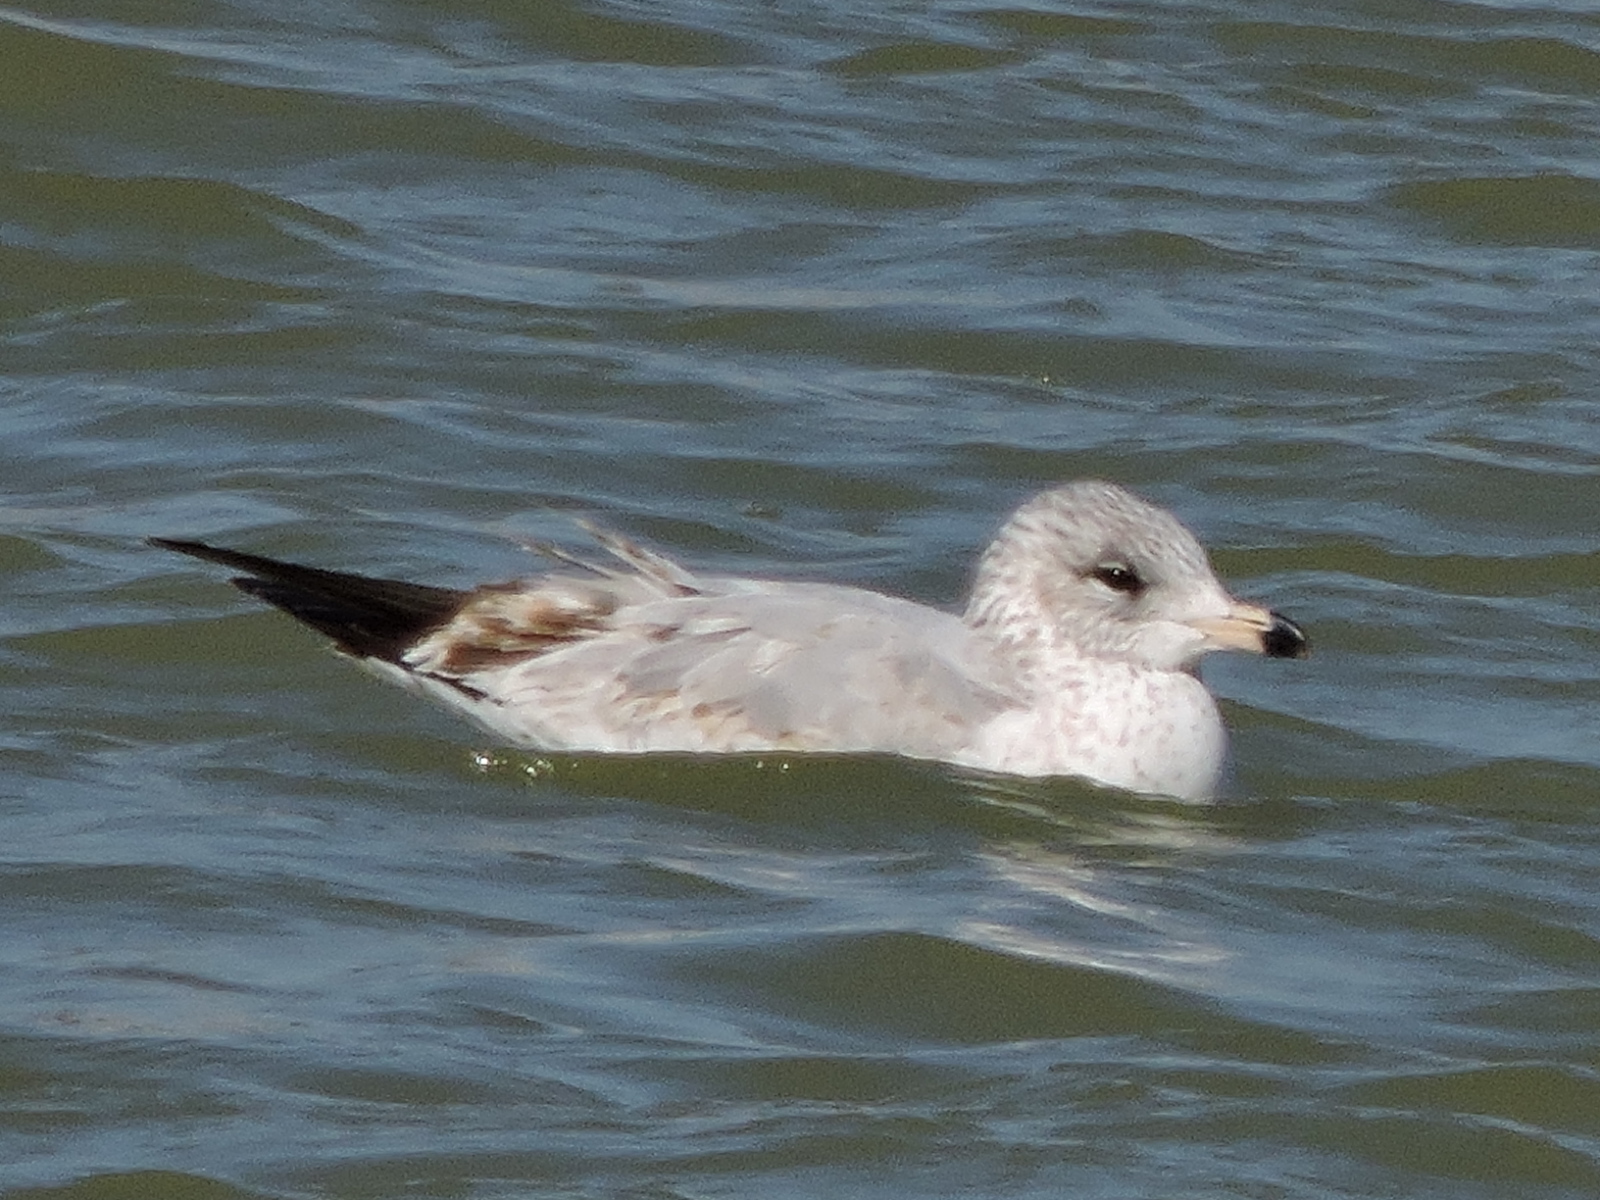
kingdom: Animalia
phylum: Chordata
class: Aves
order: Charadriiformes
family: Laridae
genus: Larus
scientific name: Larus delawarensis
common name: Ring-billed gull
